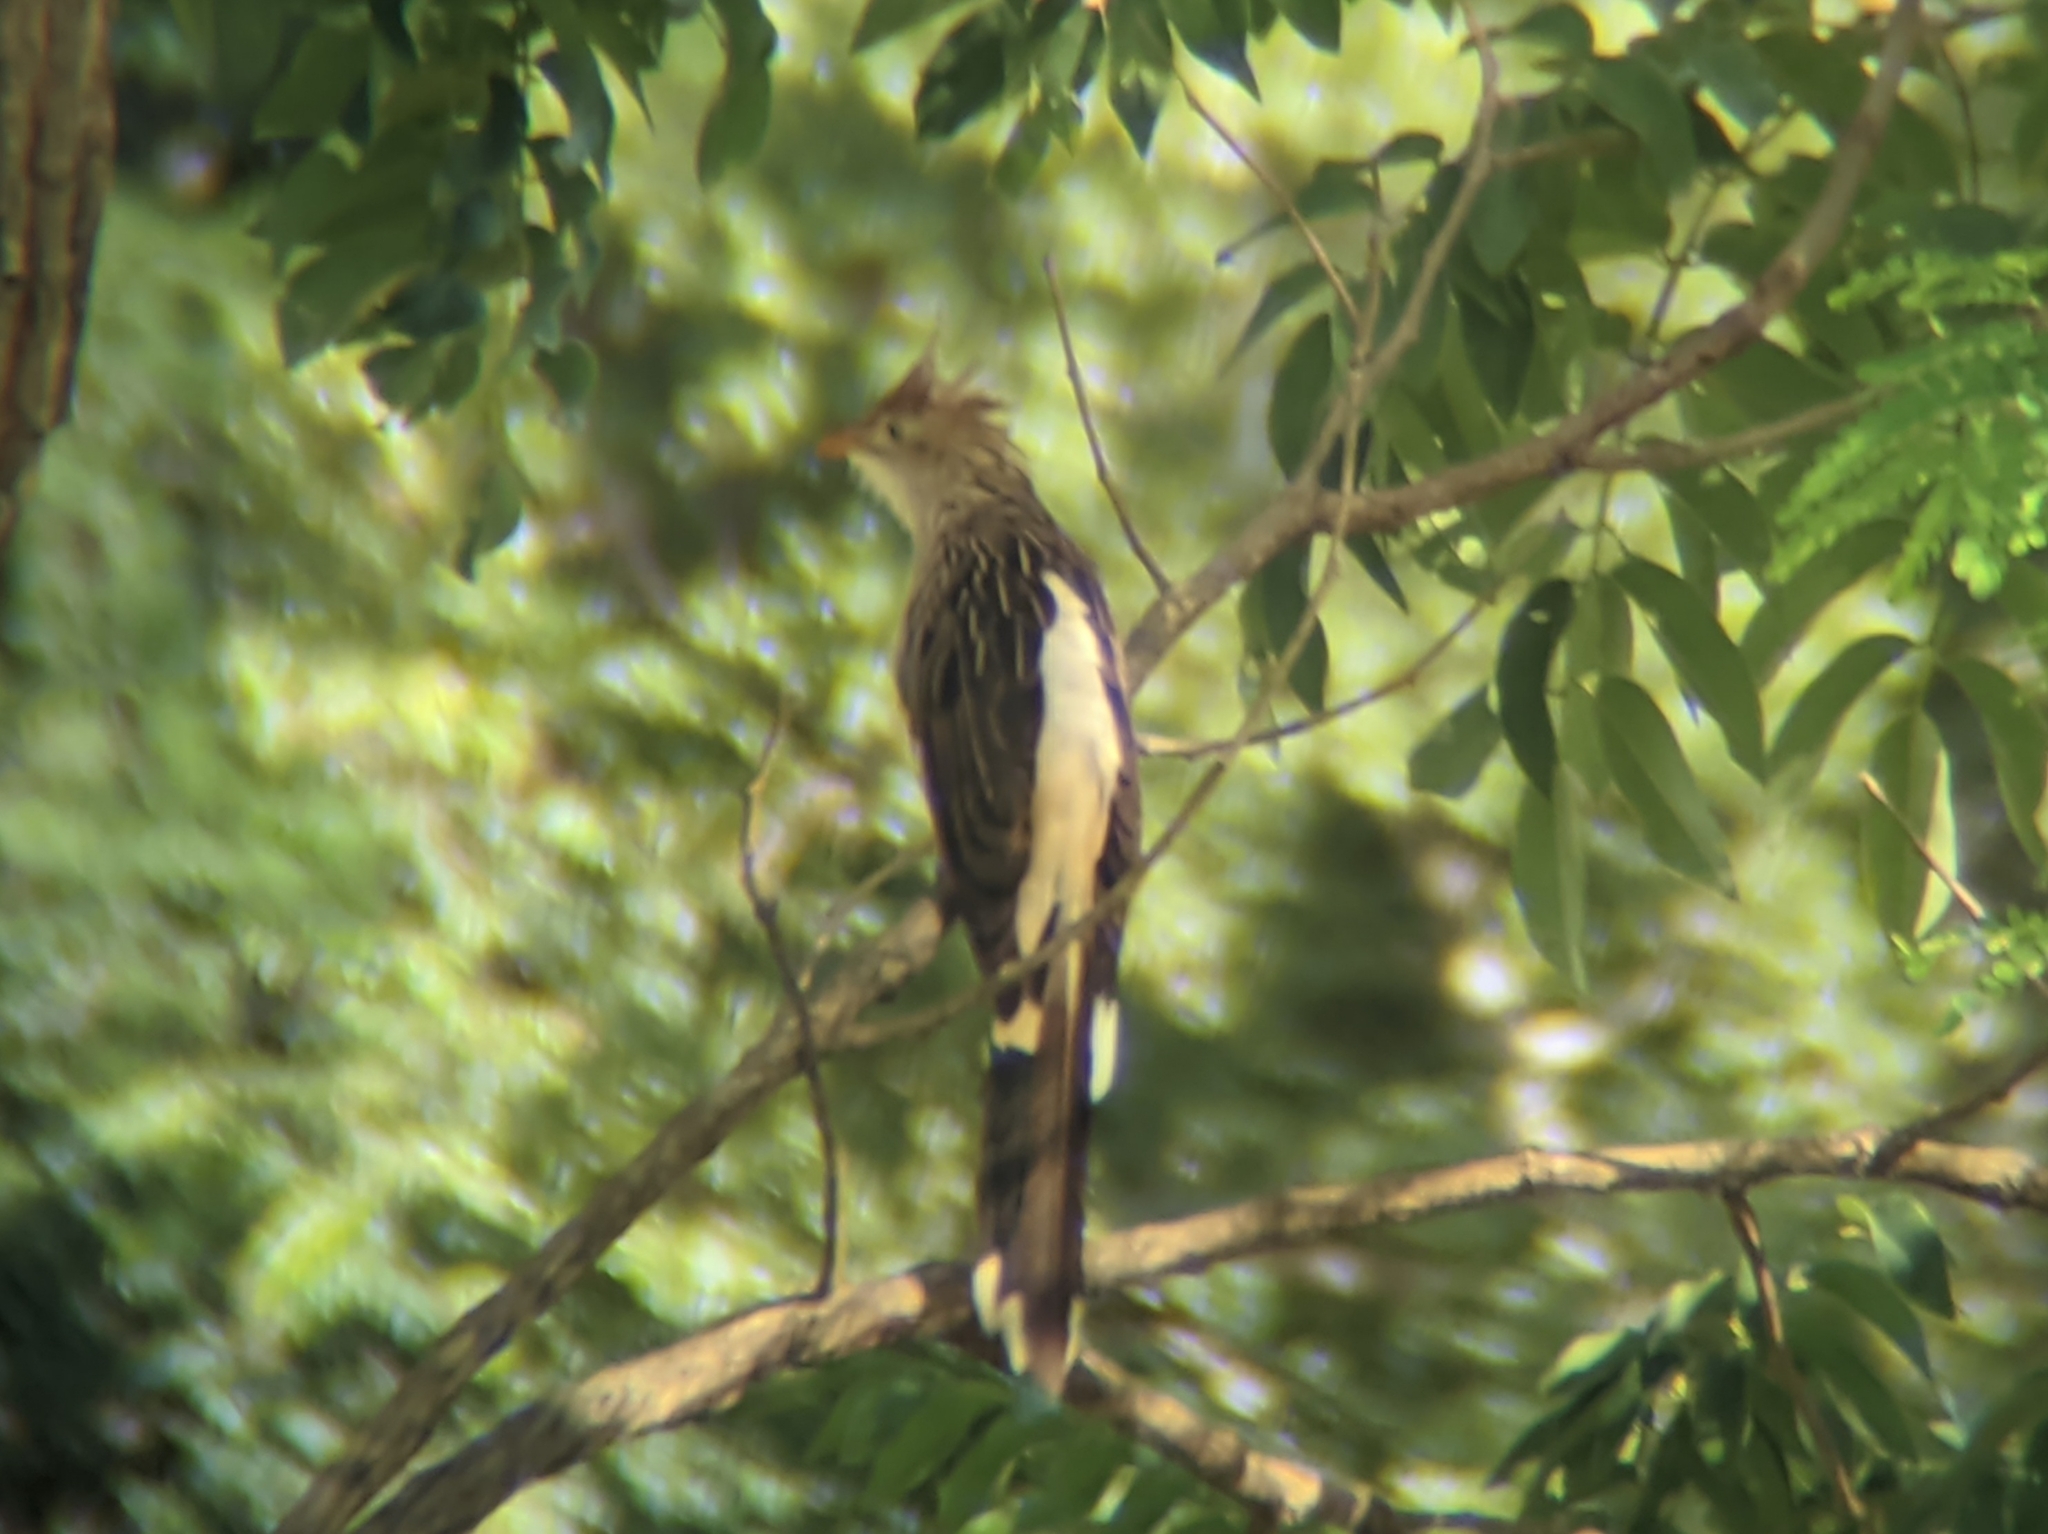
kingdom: Animalia
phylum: Chordata
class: Aves
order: Cuculiformes
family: Cuculidae
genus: Guira
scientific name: Guira guira
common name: Guira cuckoo
